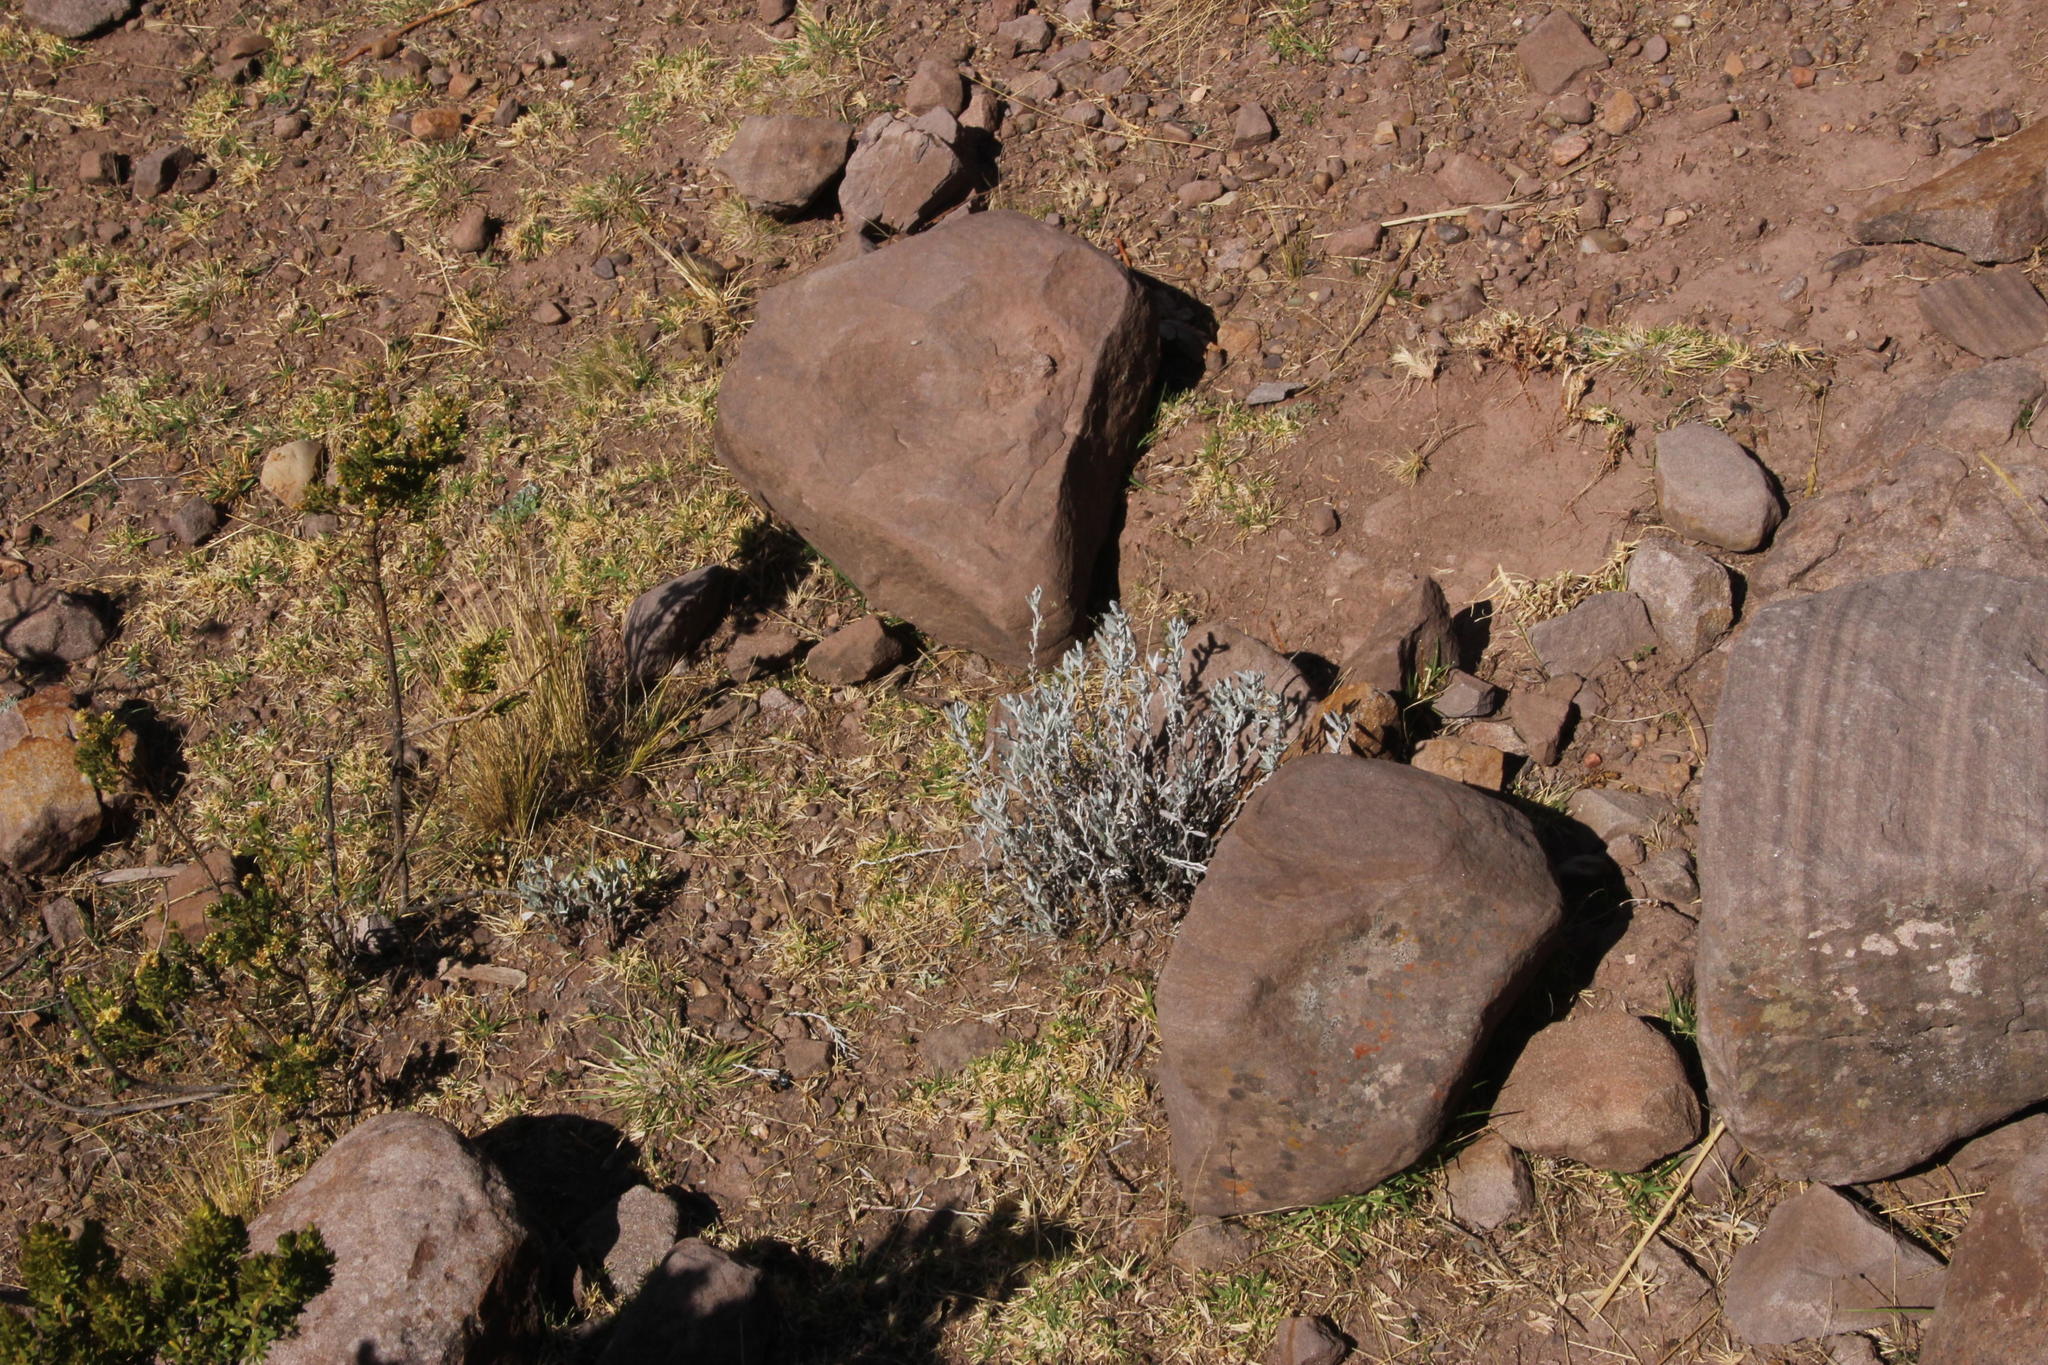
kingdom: Plantae
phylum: Tracheophyta
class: Magnoliopsida
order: Asterales
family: Asteraceae
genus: Chersodoma
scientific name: Chersodoma jodopappa
